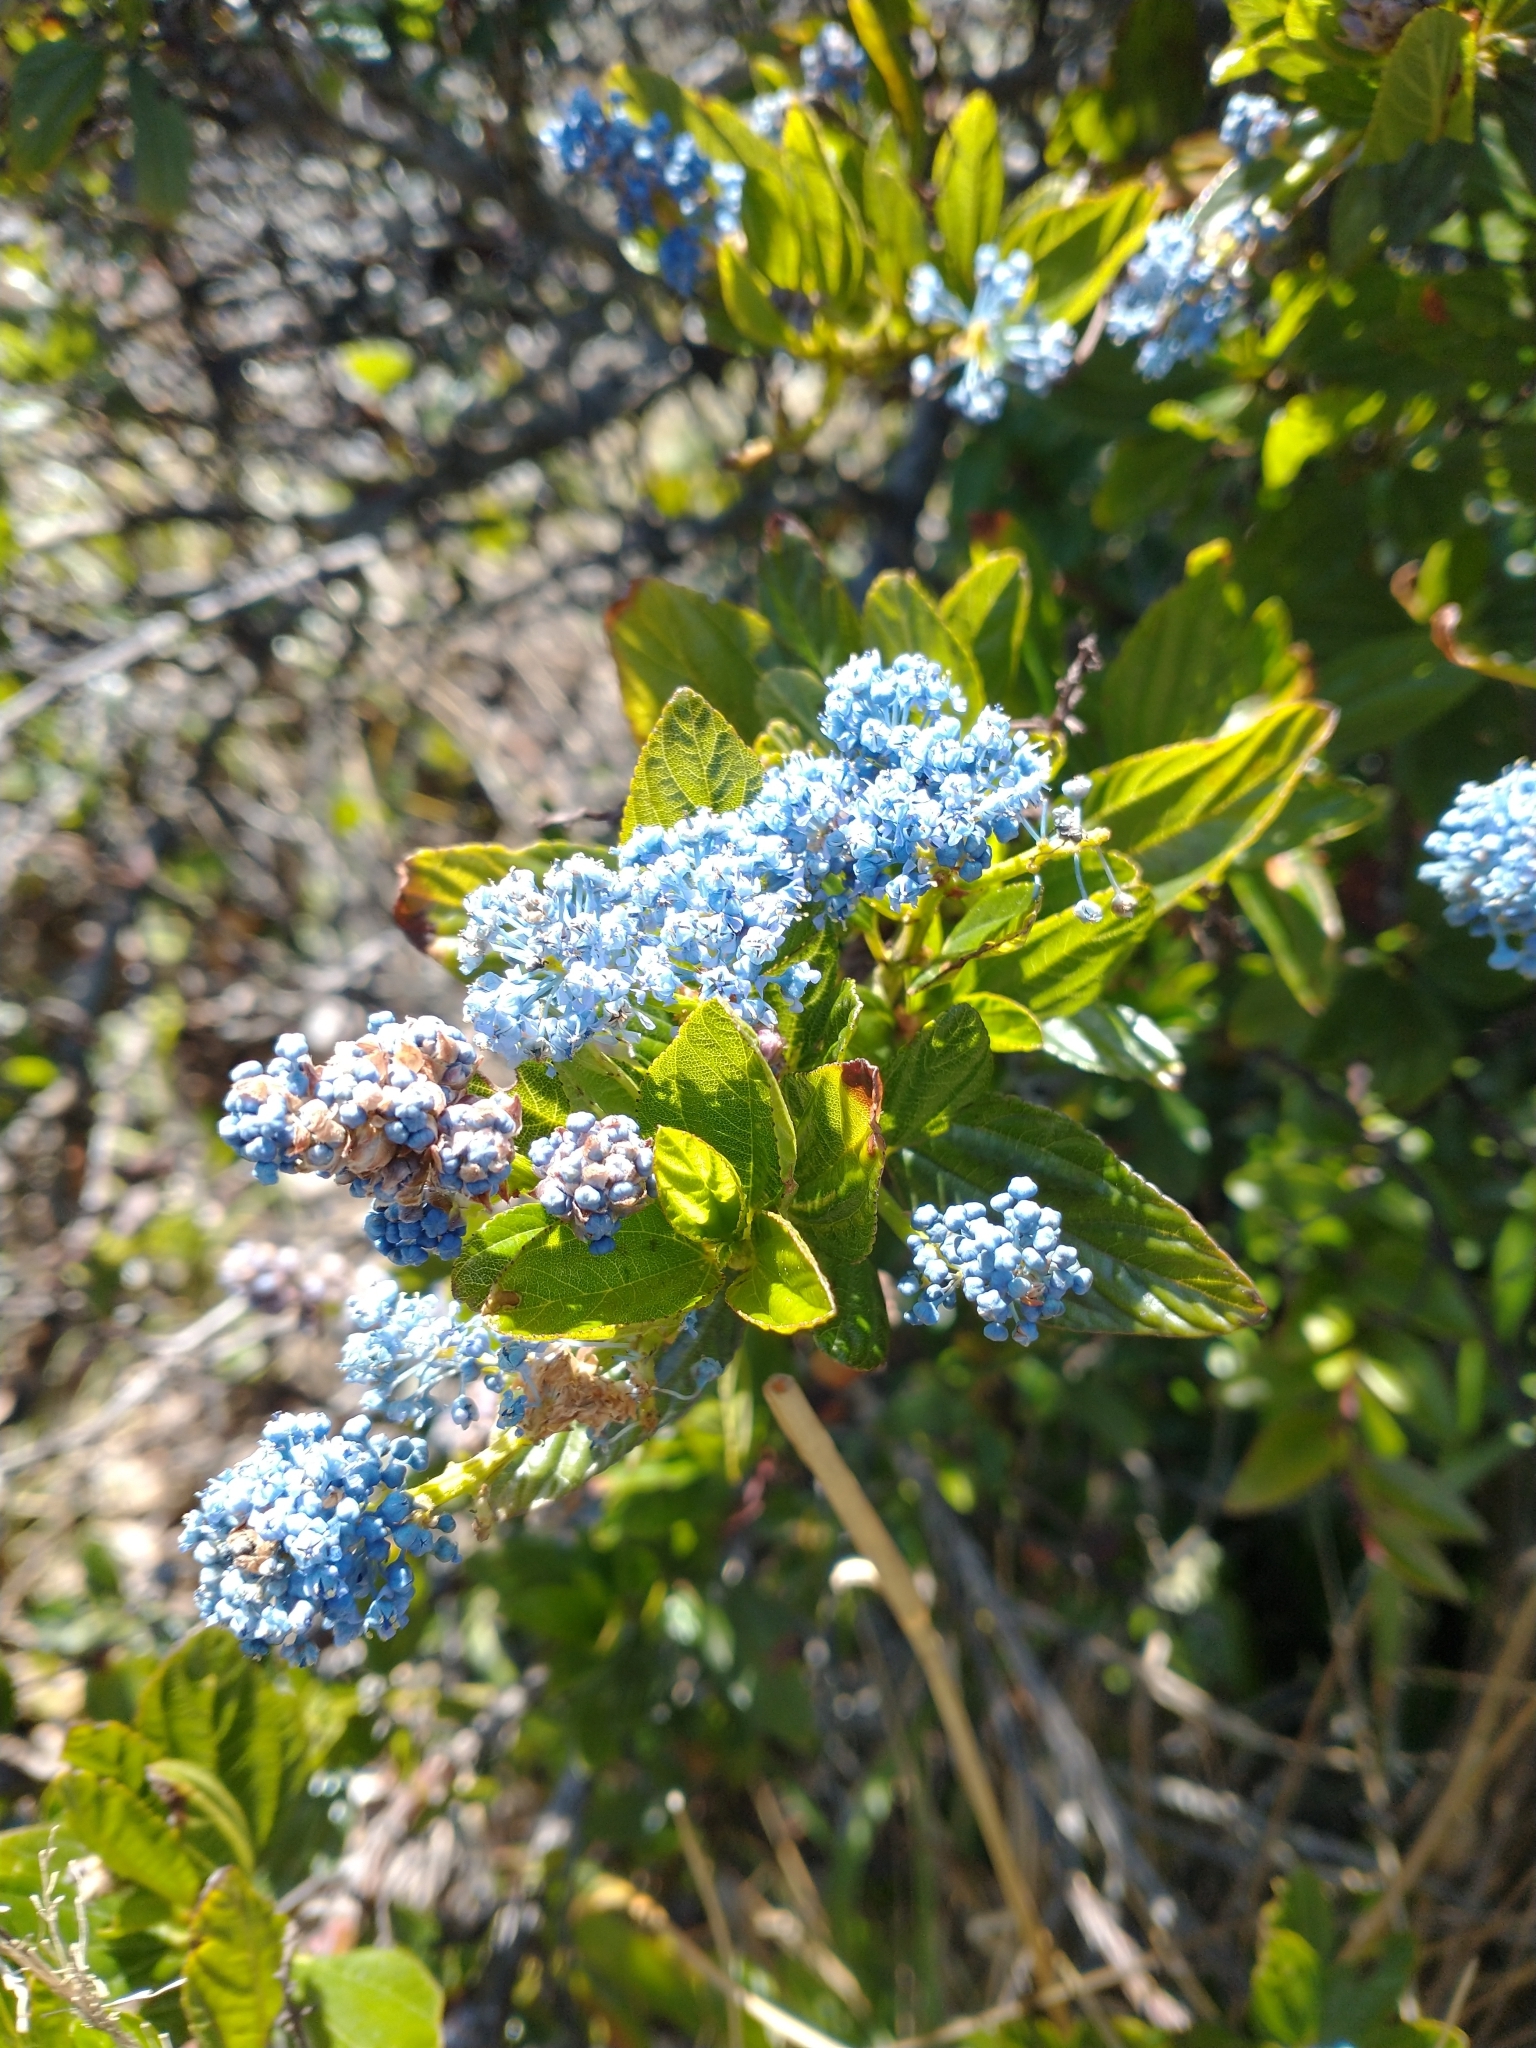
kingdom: Plantae
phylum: Tracheophyta
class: Magnoliopsida
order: Rosales
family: Rhamnaceae
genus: Ceanothus
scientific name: Ceanothus thyrsiflorus
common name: California-lilac
